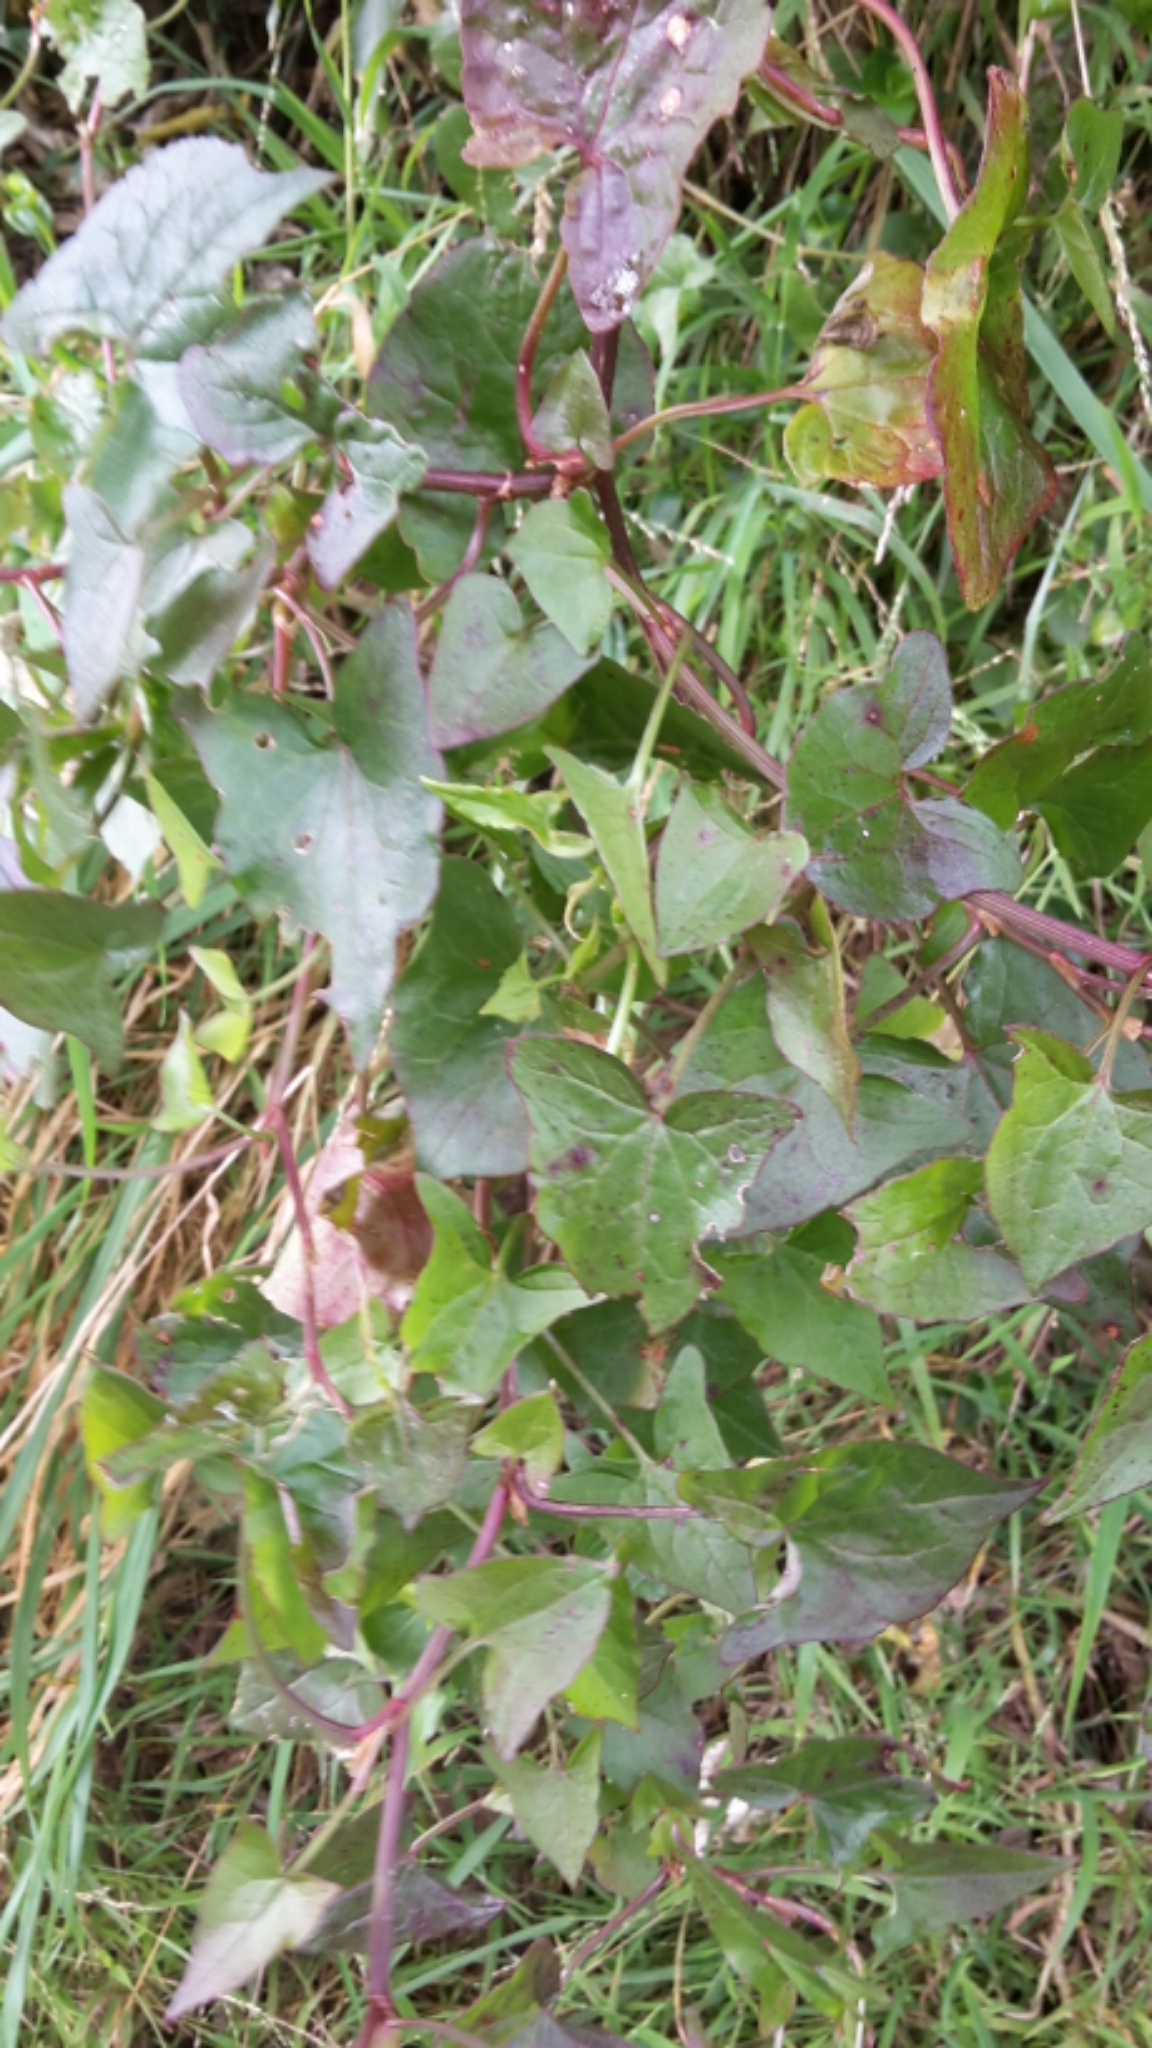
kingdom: Plantae
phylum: Tracheophyta
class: Magnoliopsida
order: Caryophyllales
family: Polygonaceae
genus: Rumex
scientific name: Rumex sagittatus
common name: Climbing dock
